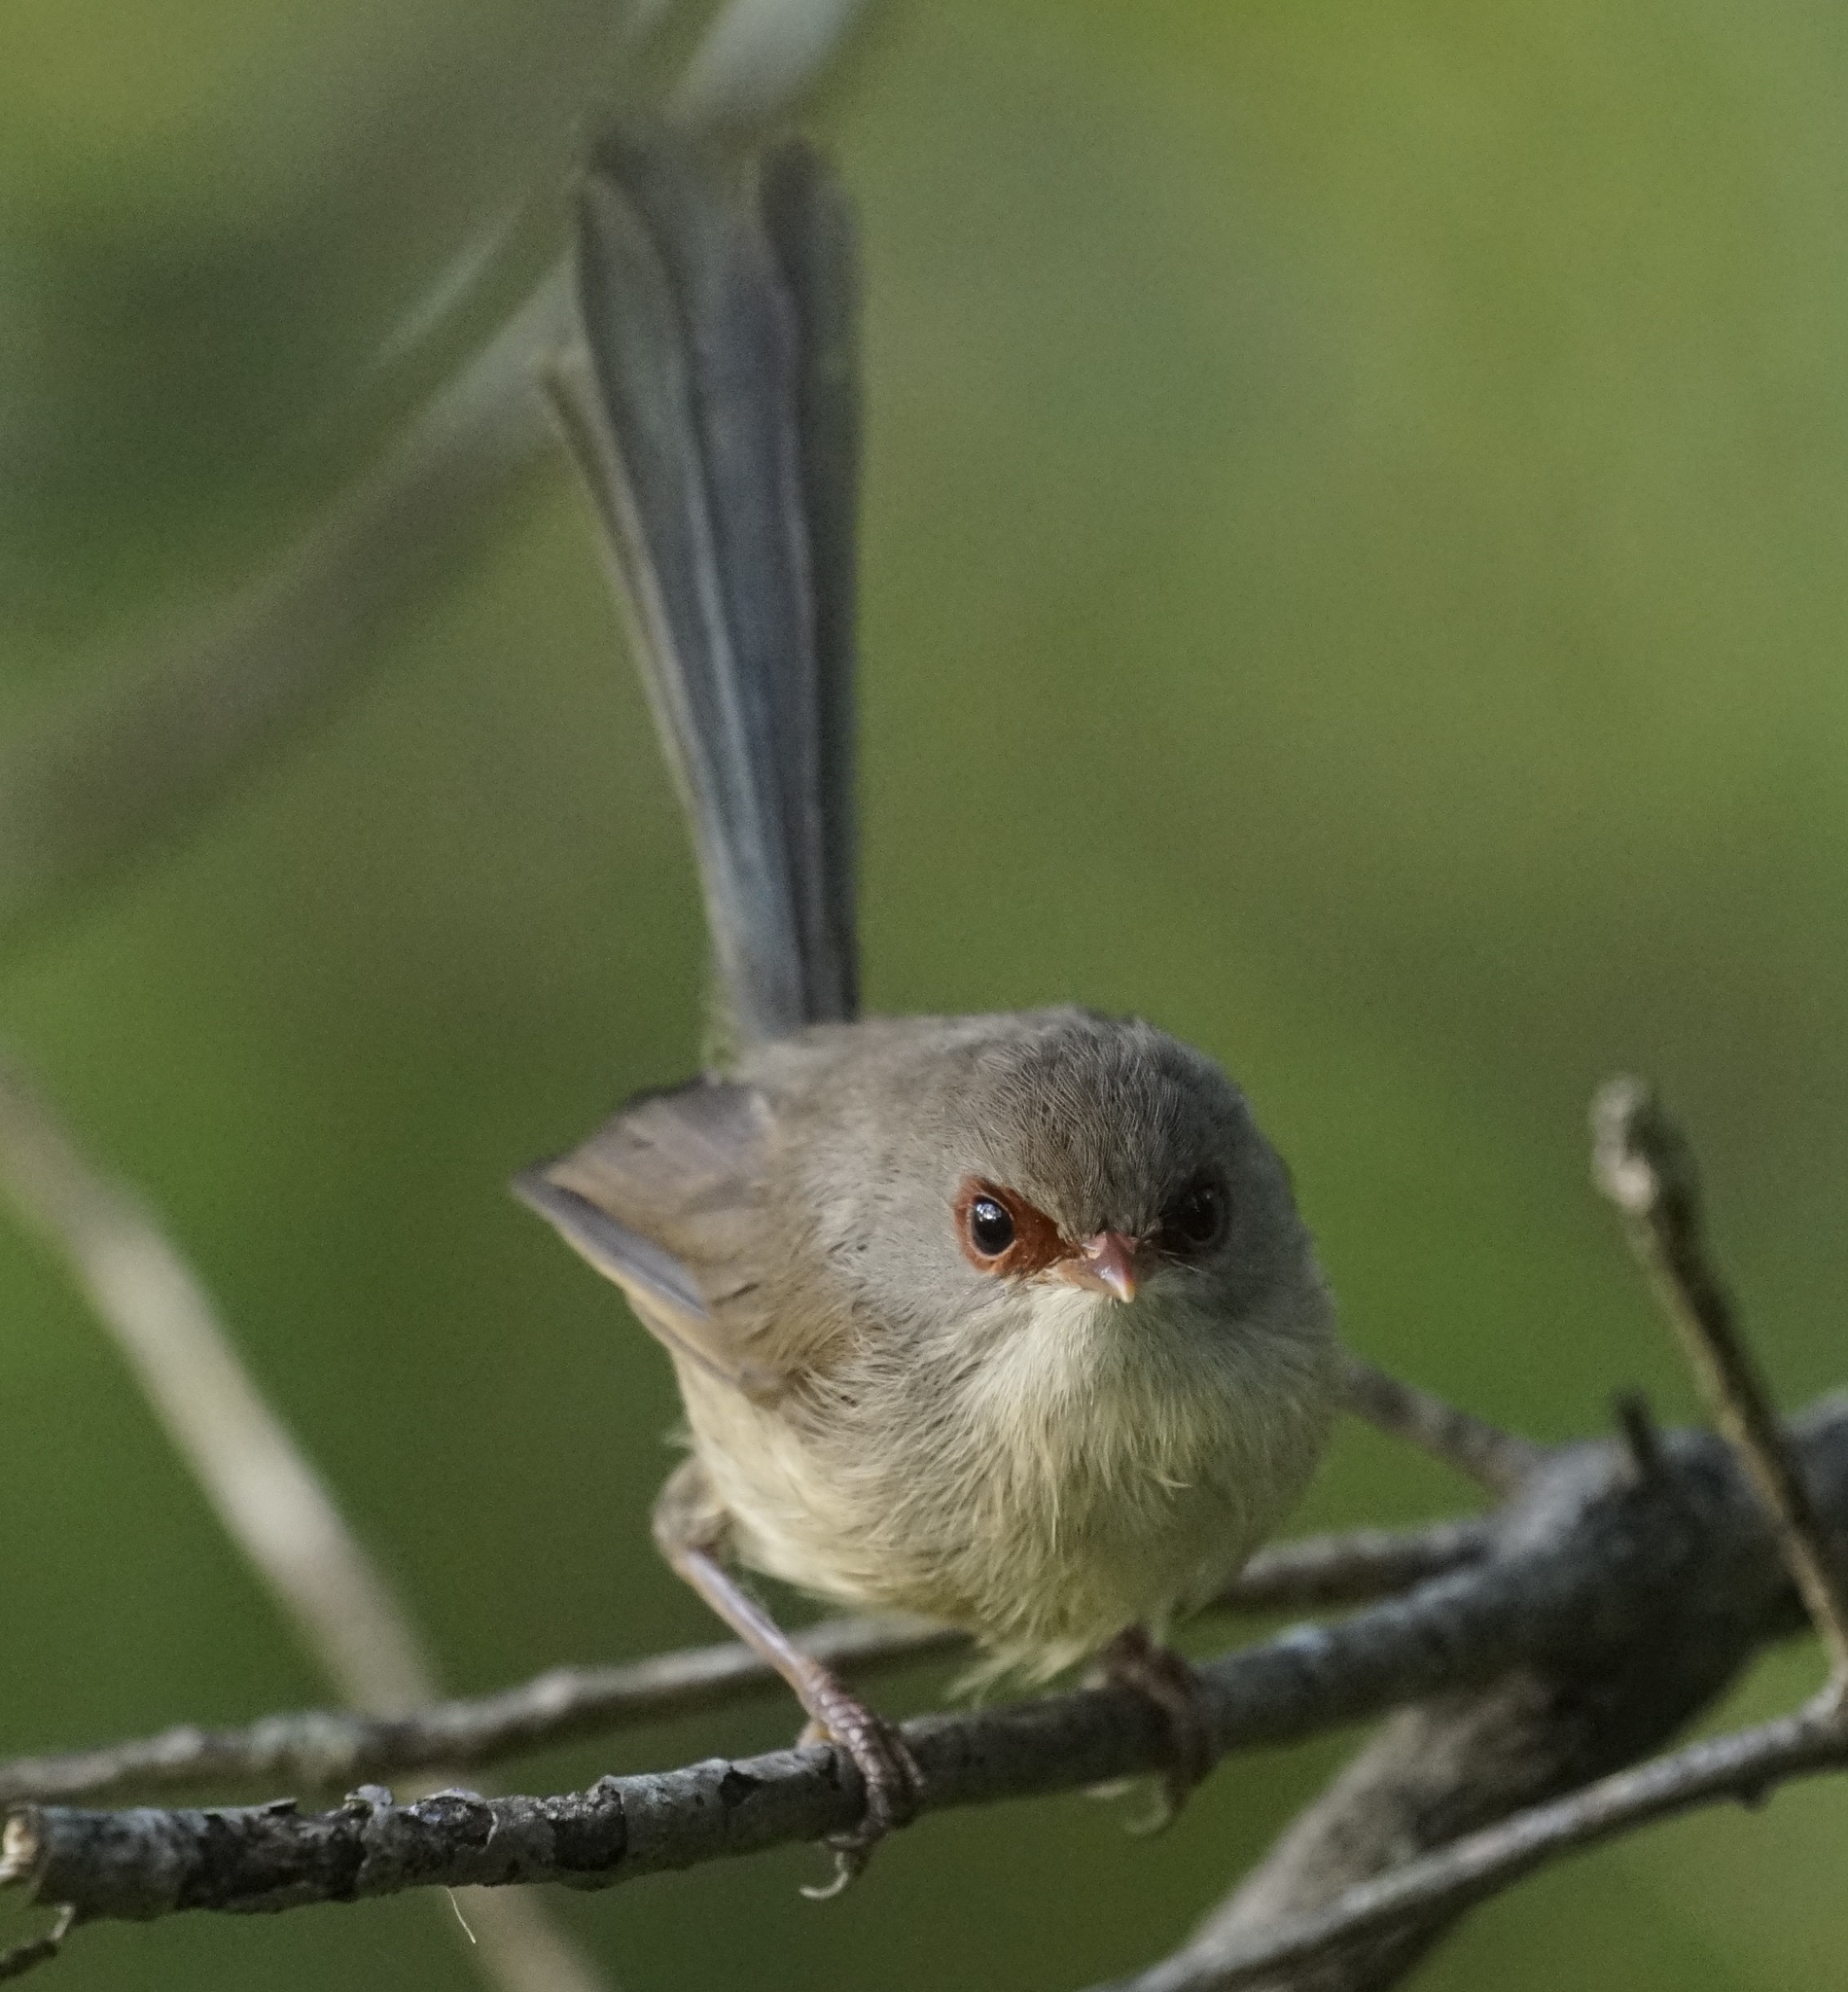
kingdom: Animalia
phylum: Chordata
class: Aves
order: Passeriformes
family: Maluridae
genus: Malurus
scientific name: Malurus lamberti
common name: Variegated fairywren
